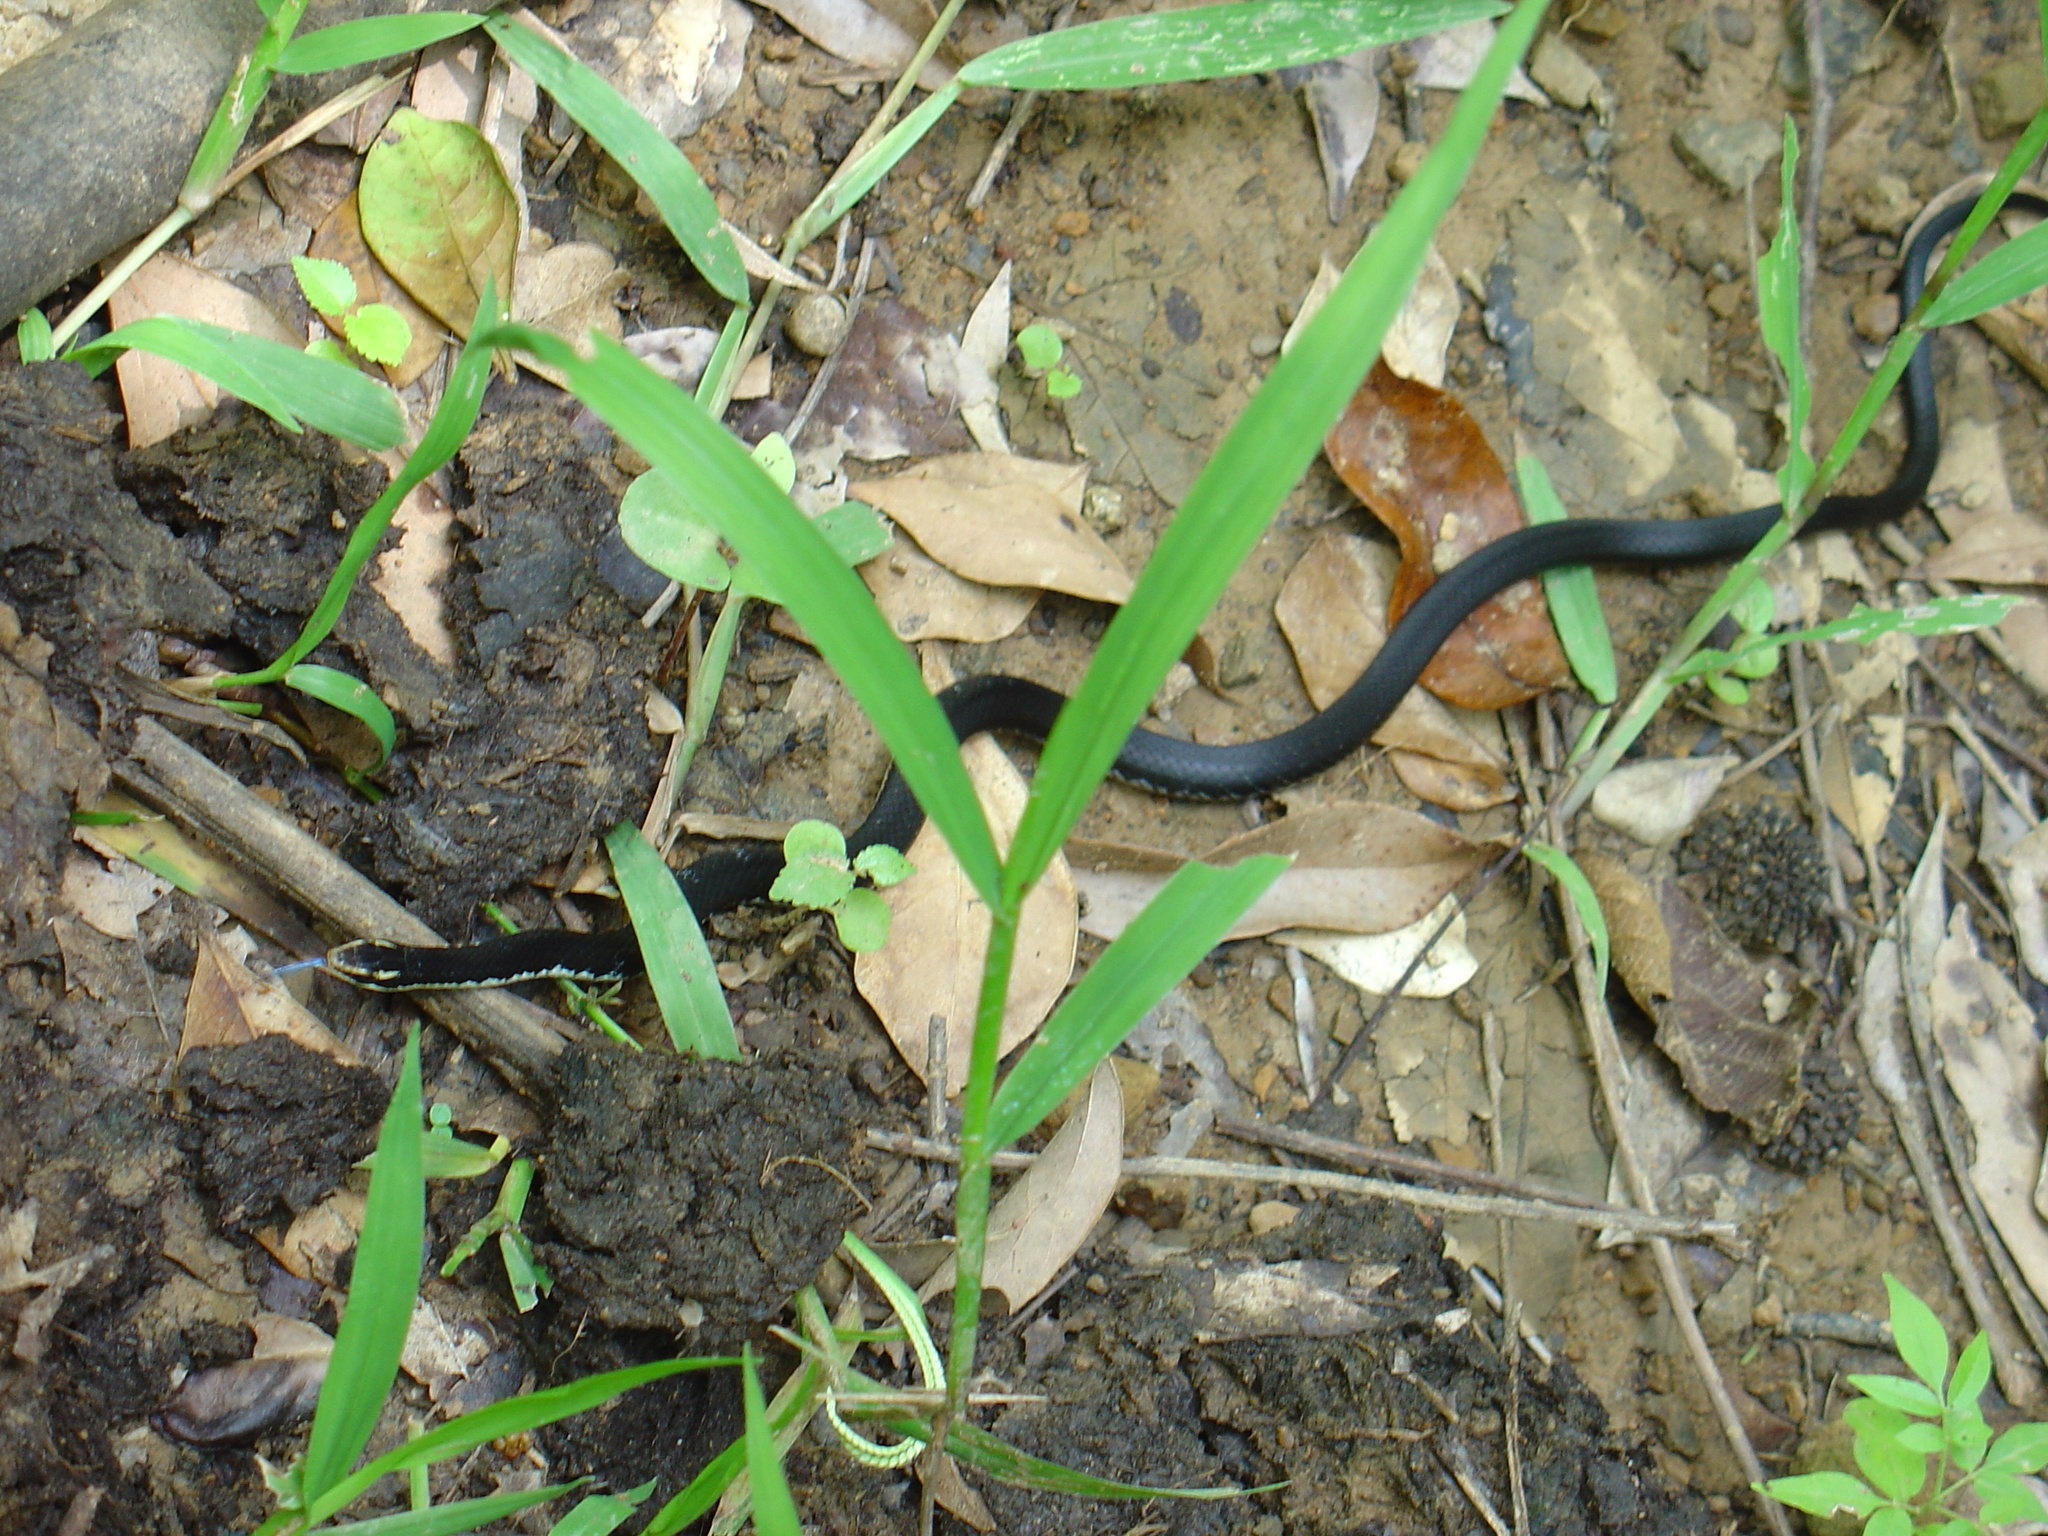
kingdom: Animalia
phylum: Chordata
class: Squamata
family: Colubridae
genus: Caraiba
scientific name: Caraiba andreae
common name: Cuban lesser racer
